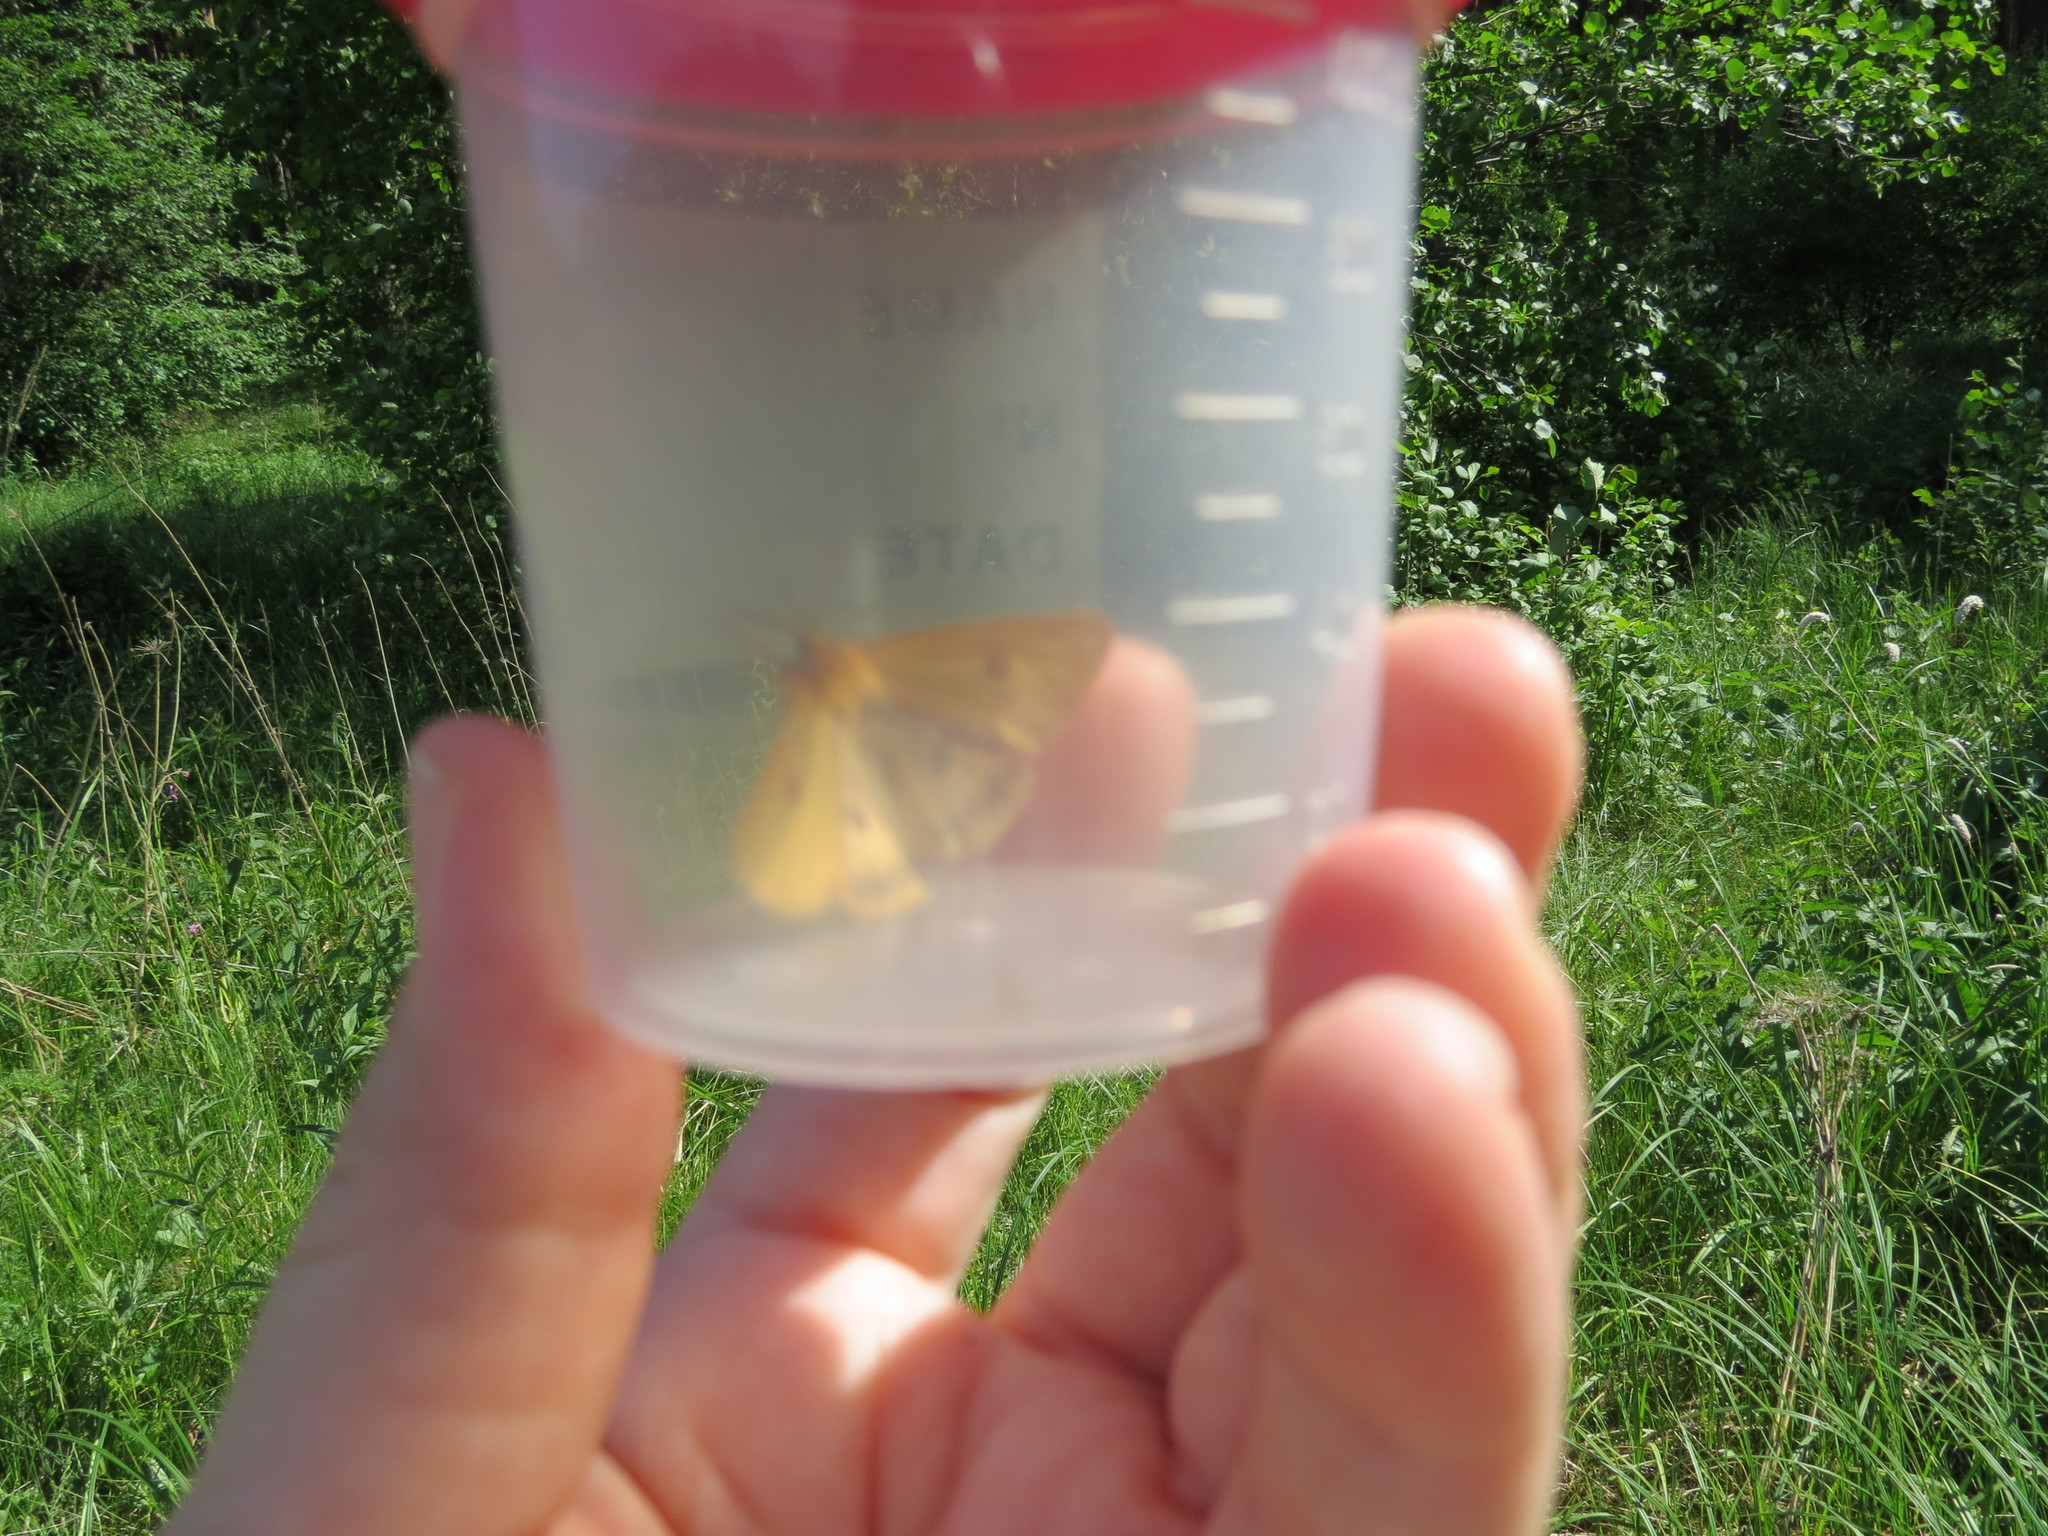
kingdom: Animalia
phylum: Arthropoda
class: Insecta
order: Lepidoptera
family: Erebidae
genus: Diacrisia
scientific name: Diacrisia sannio
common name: Clouded buff
